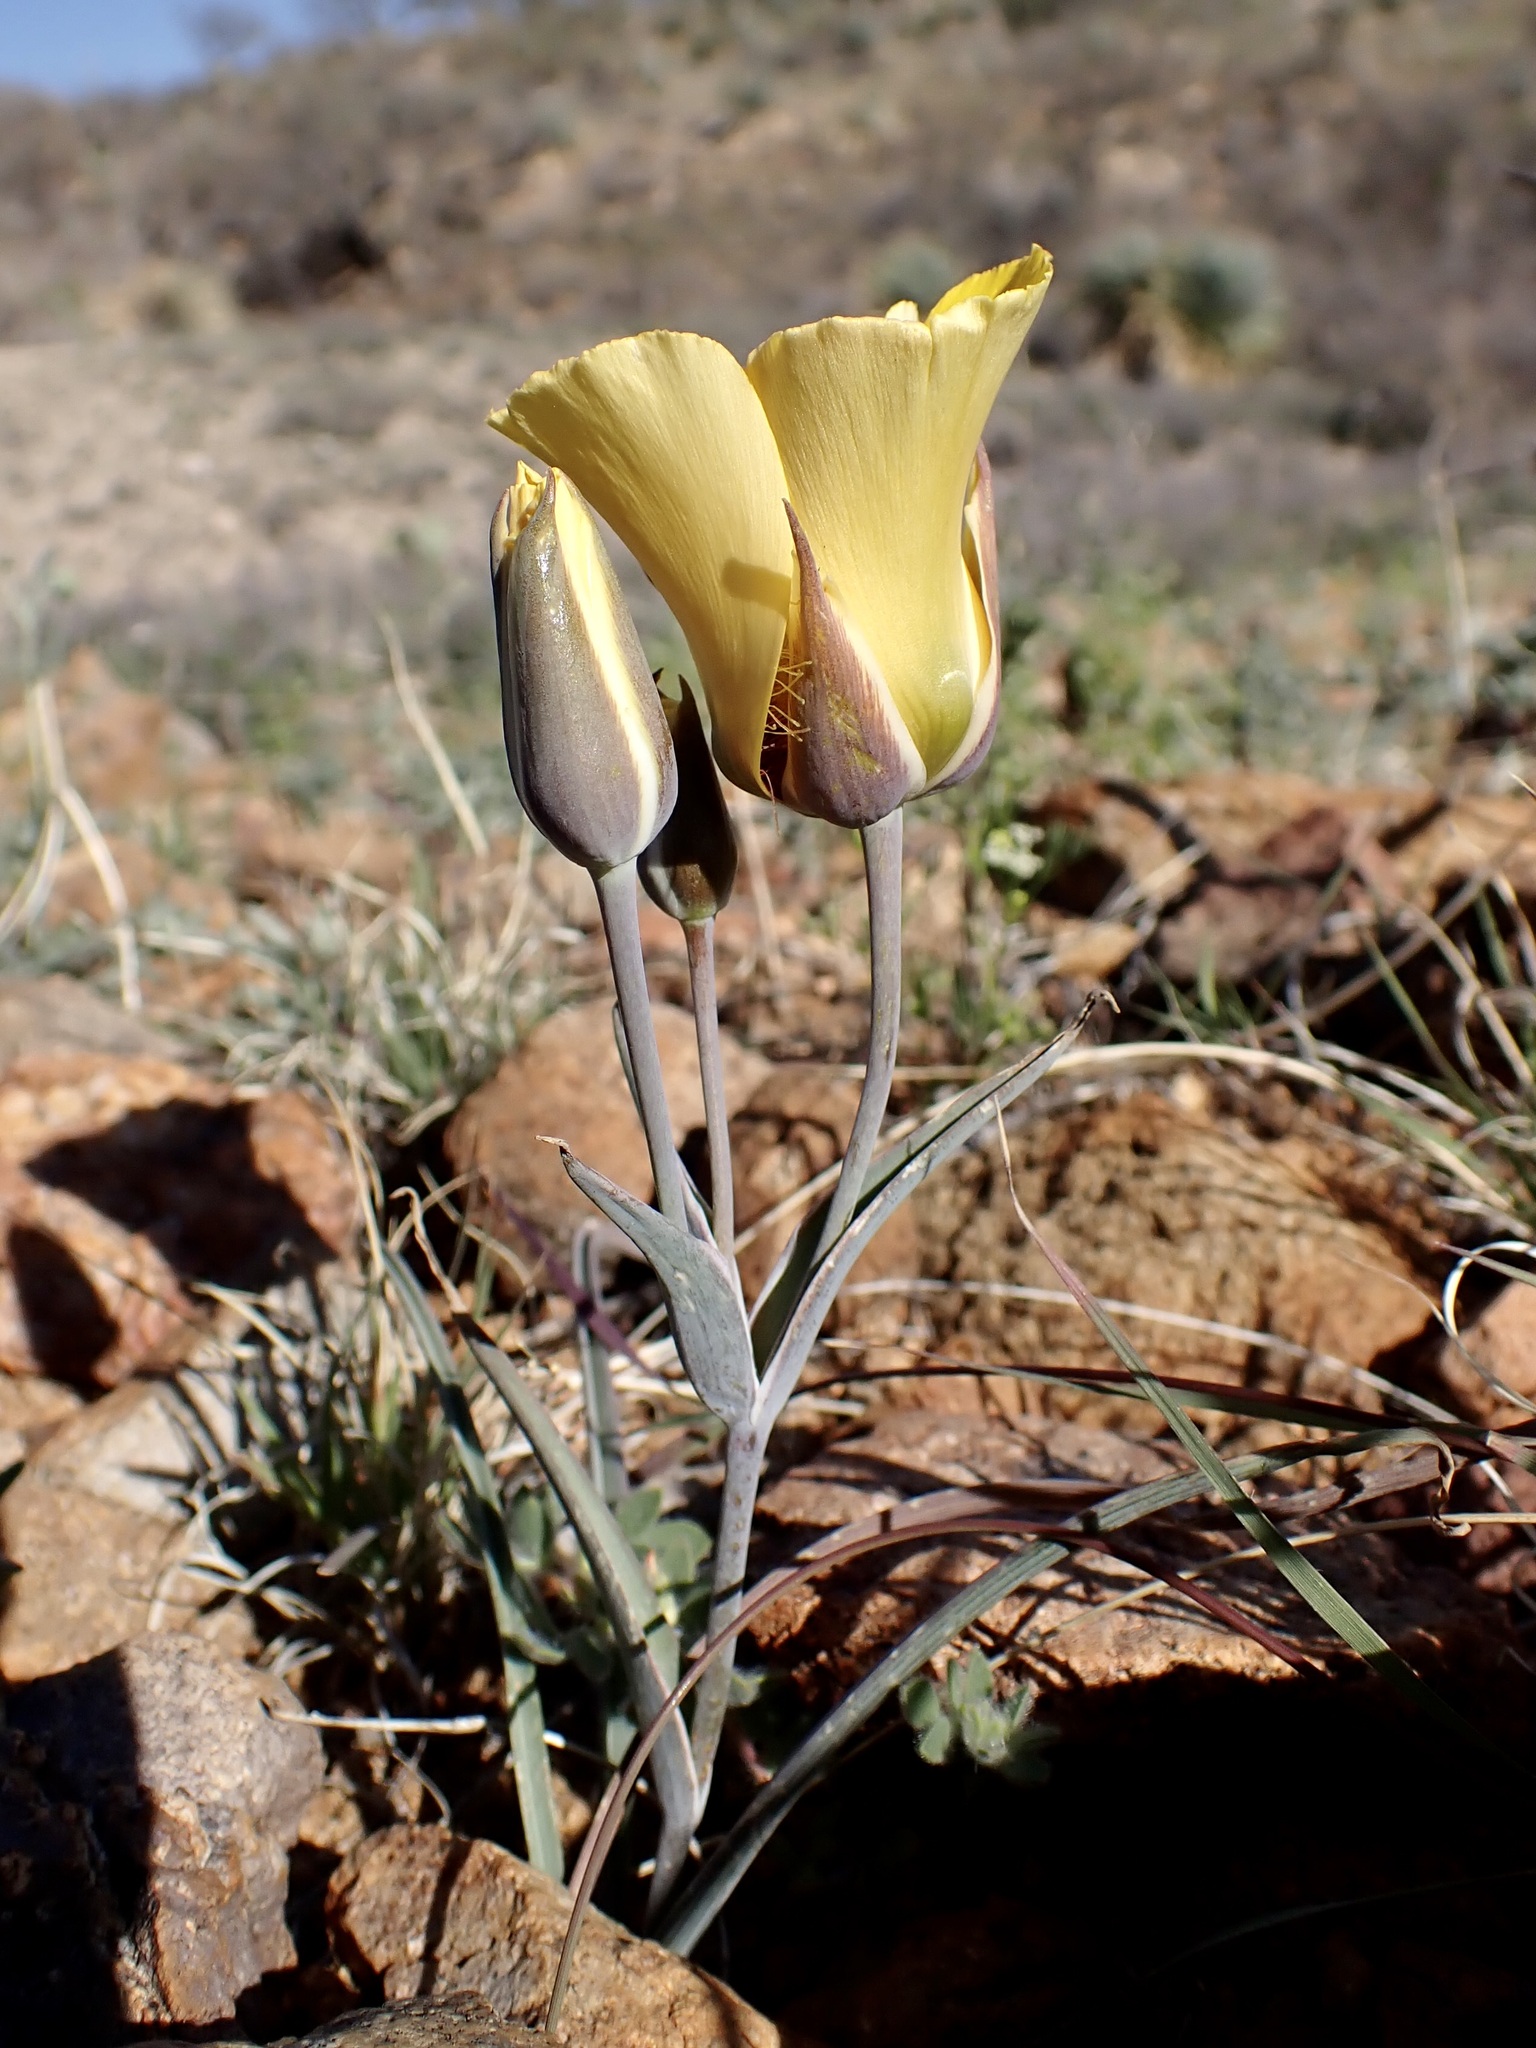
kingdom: Plantae
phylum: Tracheophyta
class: Liliopsida
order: Liliales
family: Liliaceae
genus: Calochortus
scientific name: Calochortus kennedyi
